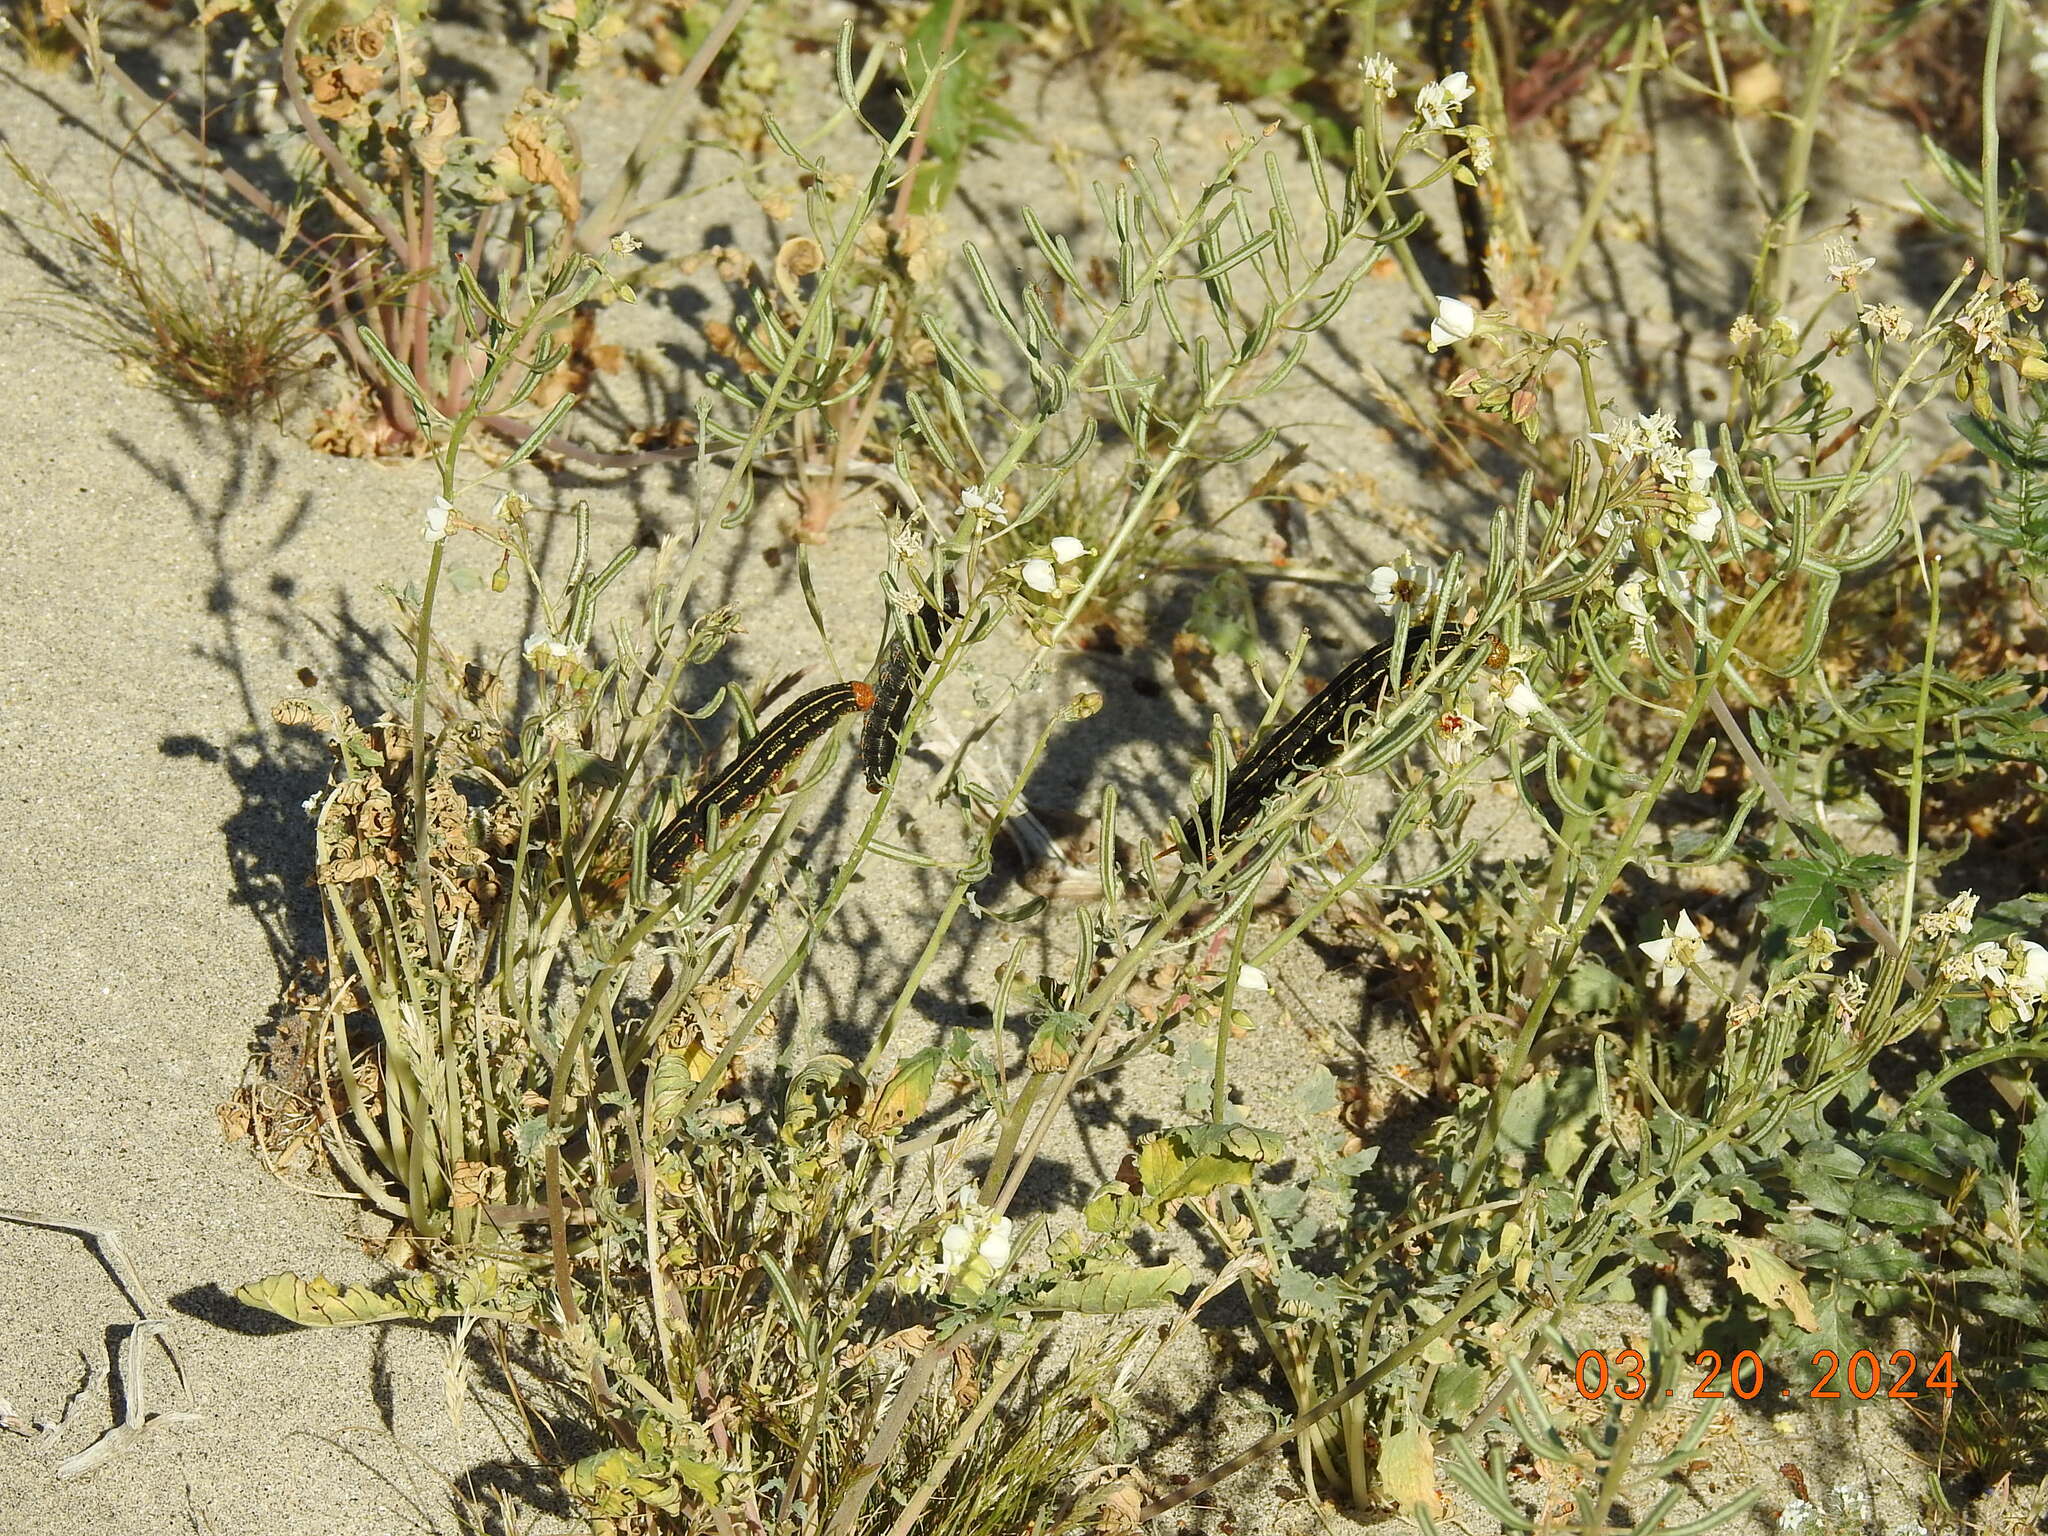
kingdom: Animalia
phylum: Arthropoda
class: Insecta
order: Lepidoptera
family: Sphingidae
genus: Hyles
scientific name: Hyles lineata
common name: White-lined sphinx
